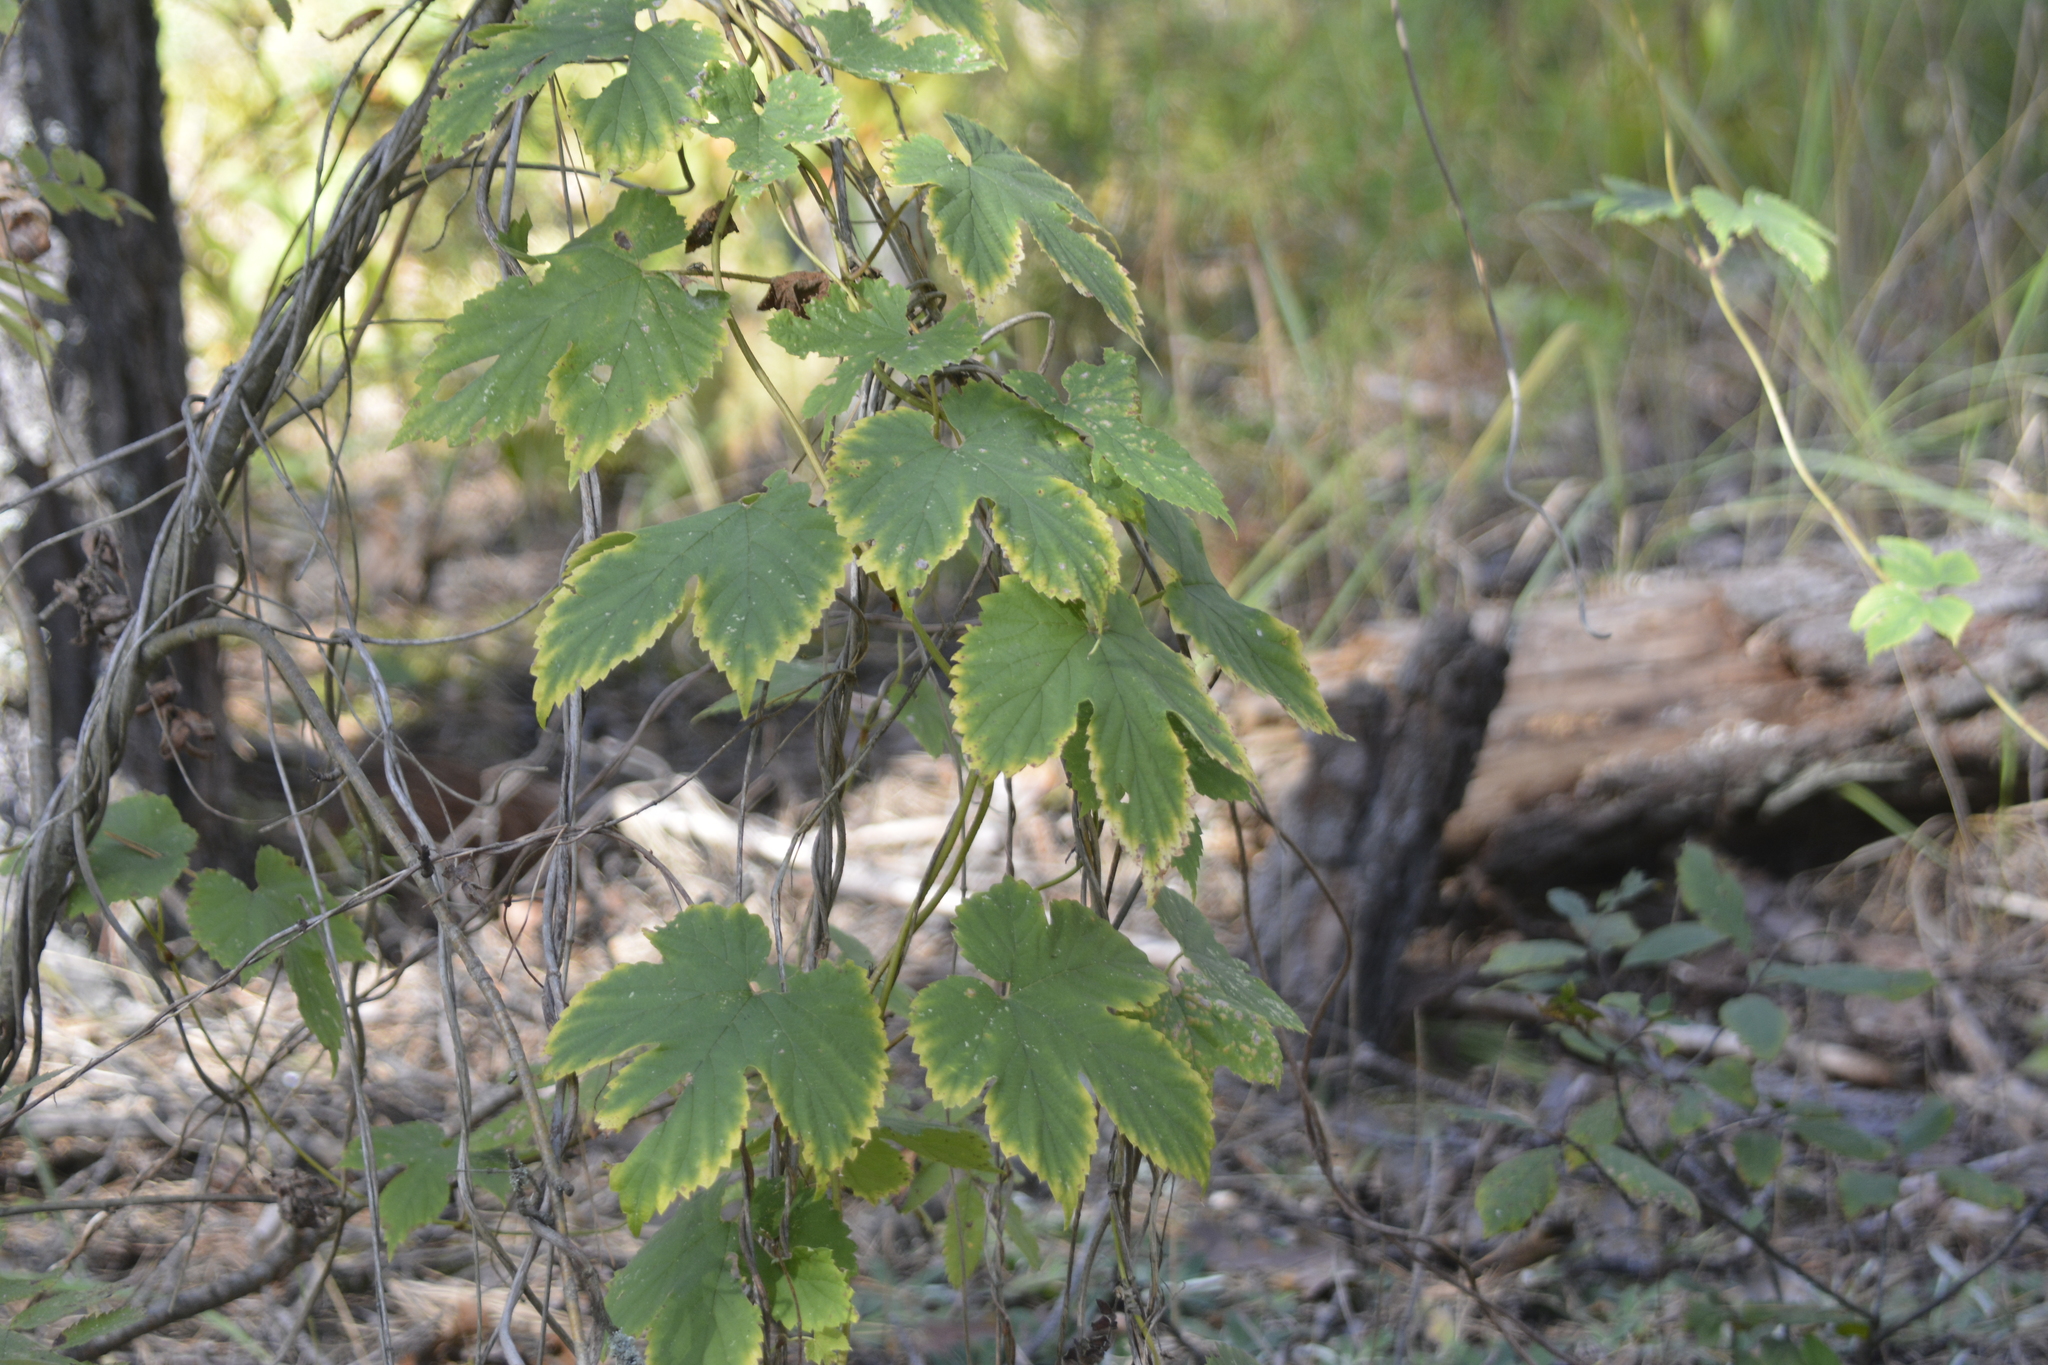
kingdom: Plantae
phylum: Tracheophyta
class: Magnoliopsida
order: Rosales
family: Cannabaceae
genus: Humulus
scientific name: Humulus lupulus
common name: Hop
